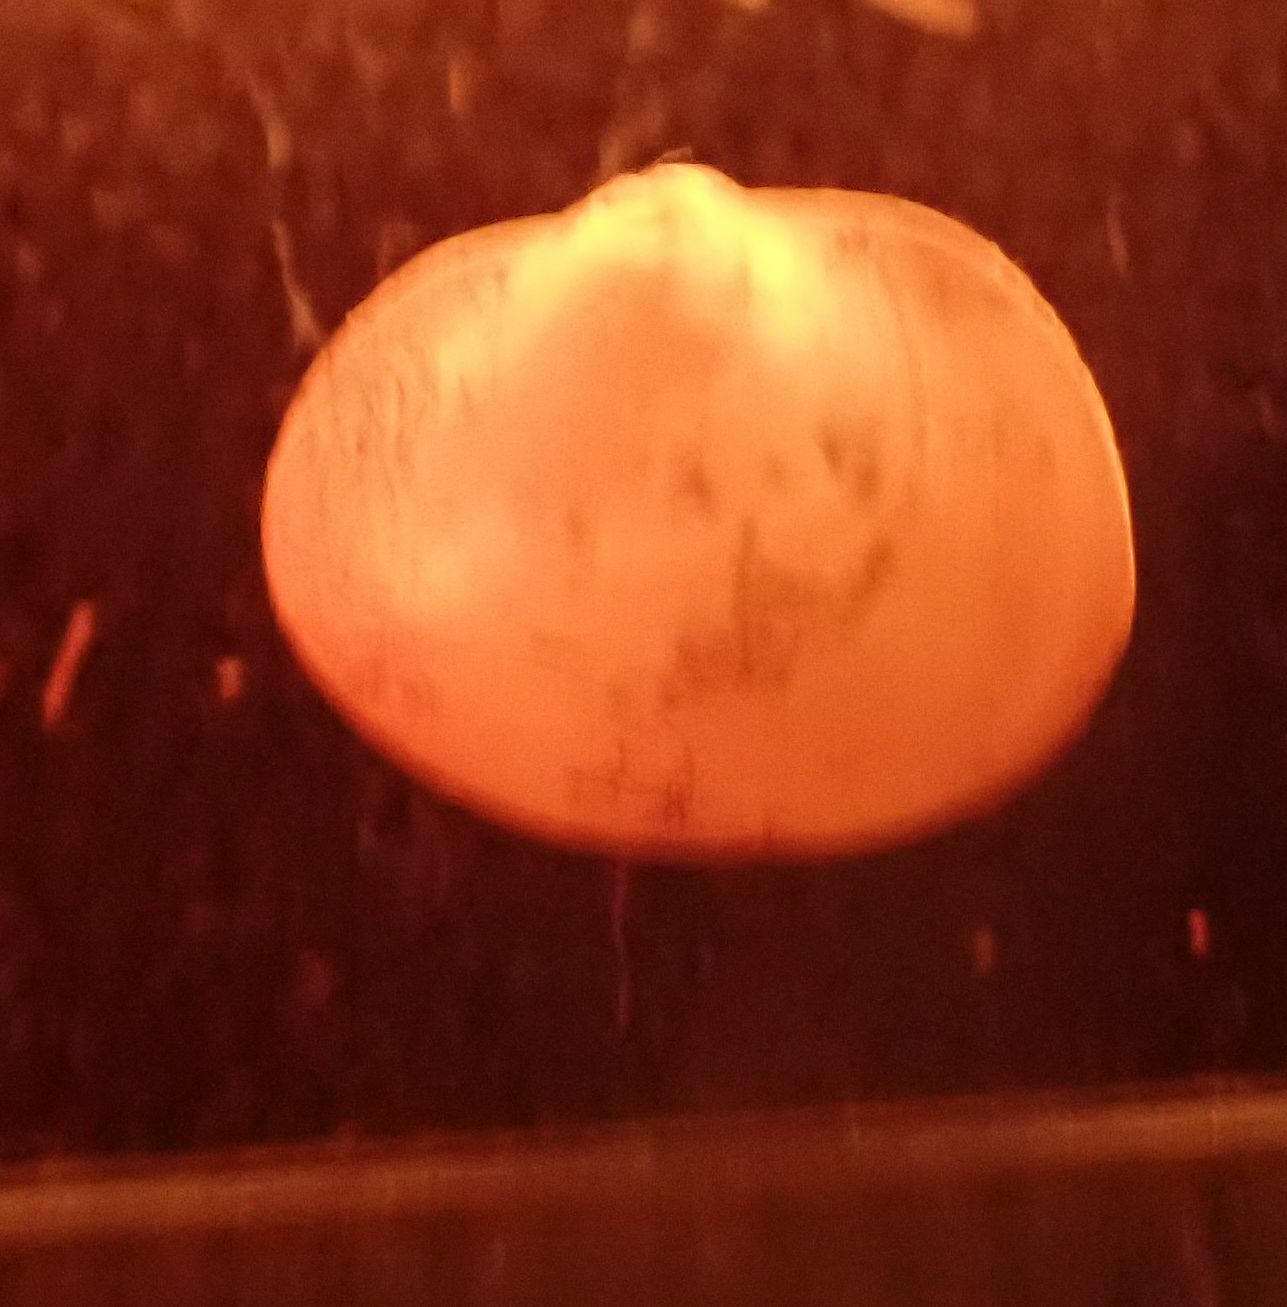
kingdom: Animalia
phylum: Mollusca
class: Bivalvia
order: Sphaeriida
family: Sphaeriidae
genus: Musculium
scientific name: Musculium lacustre
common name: Lake fingernailclam
